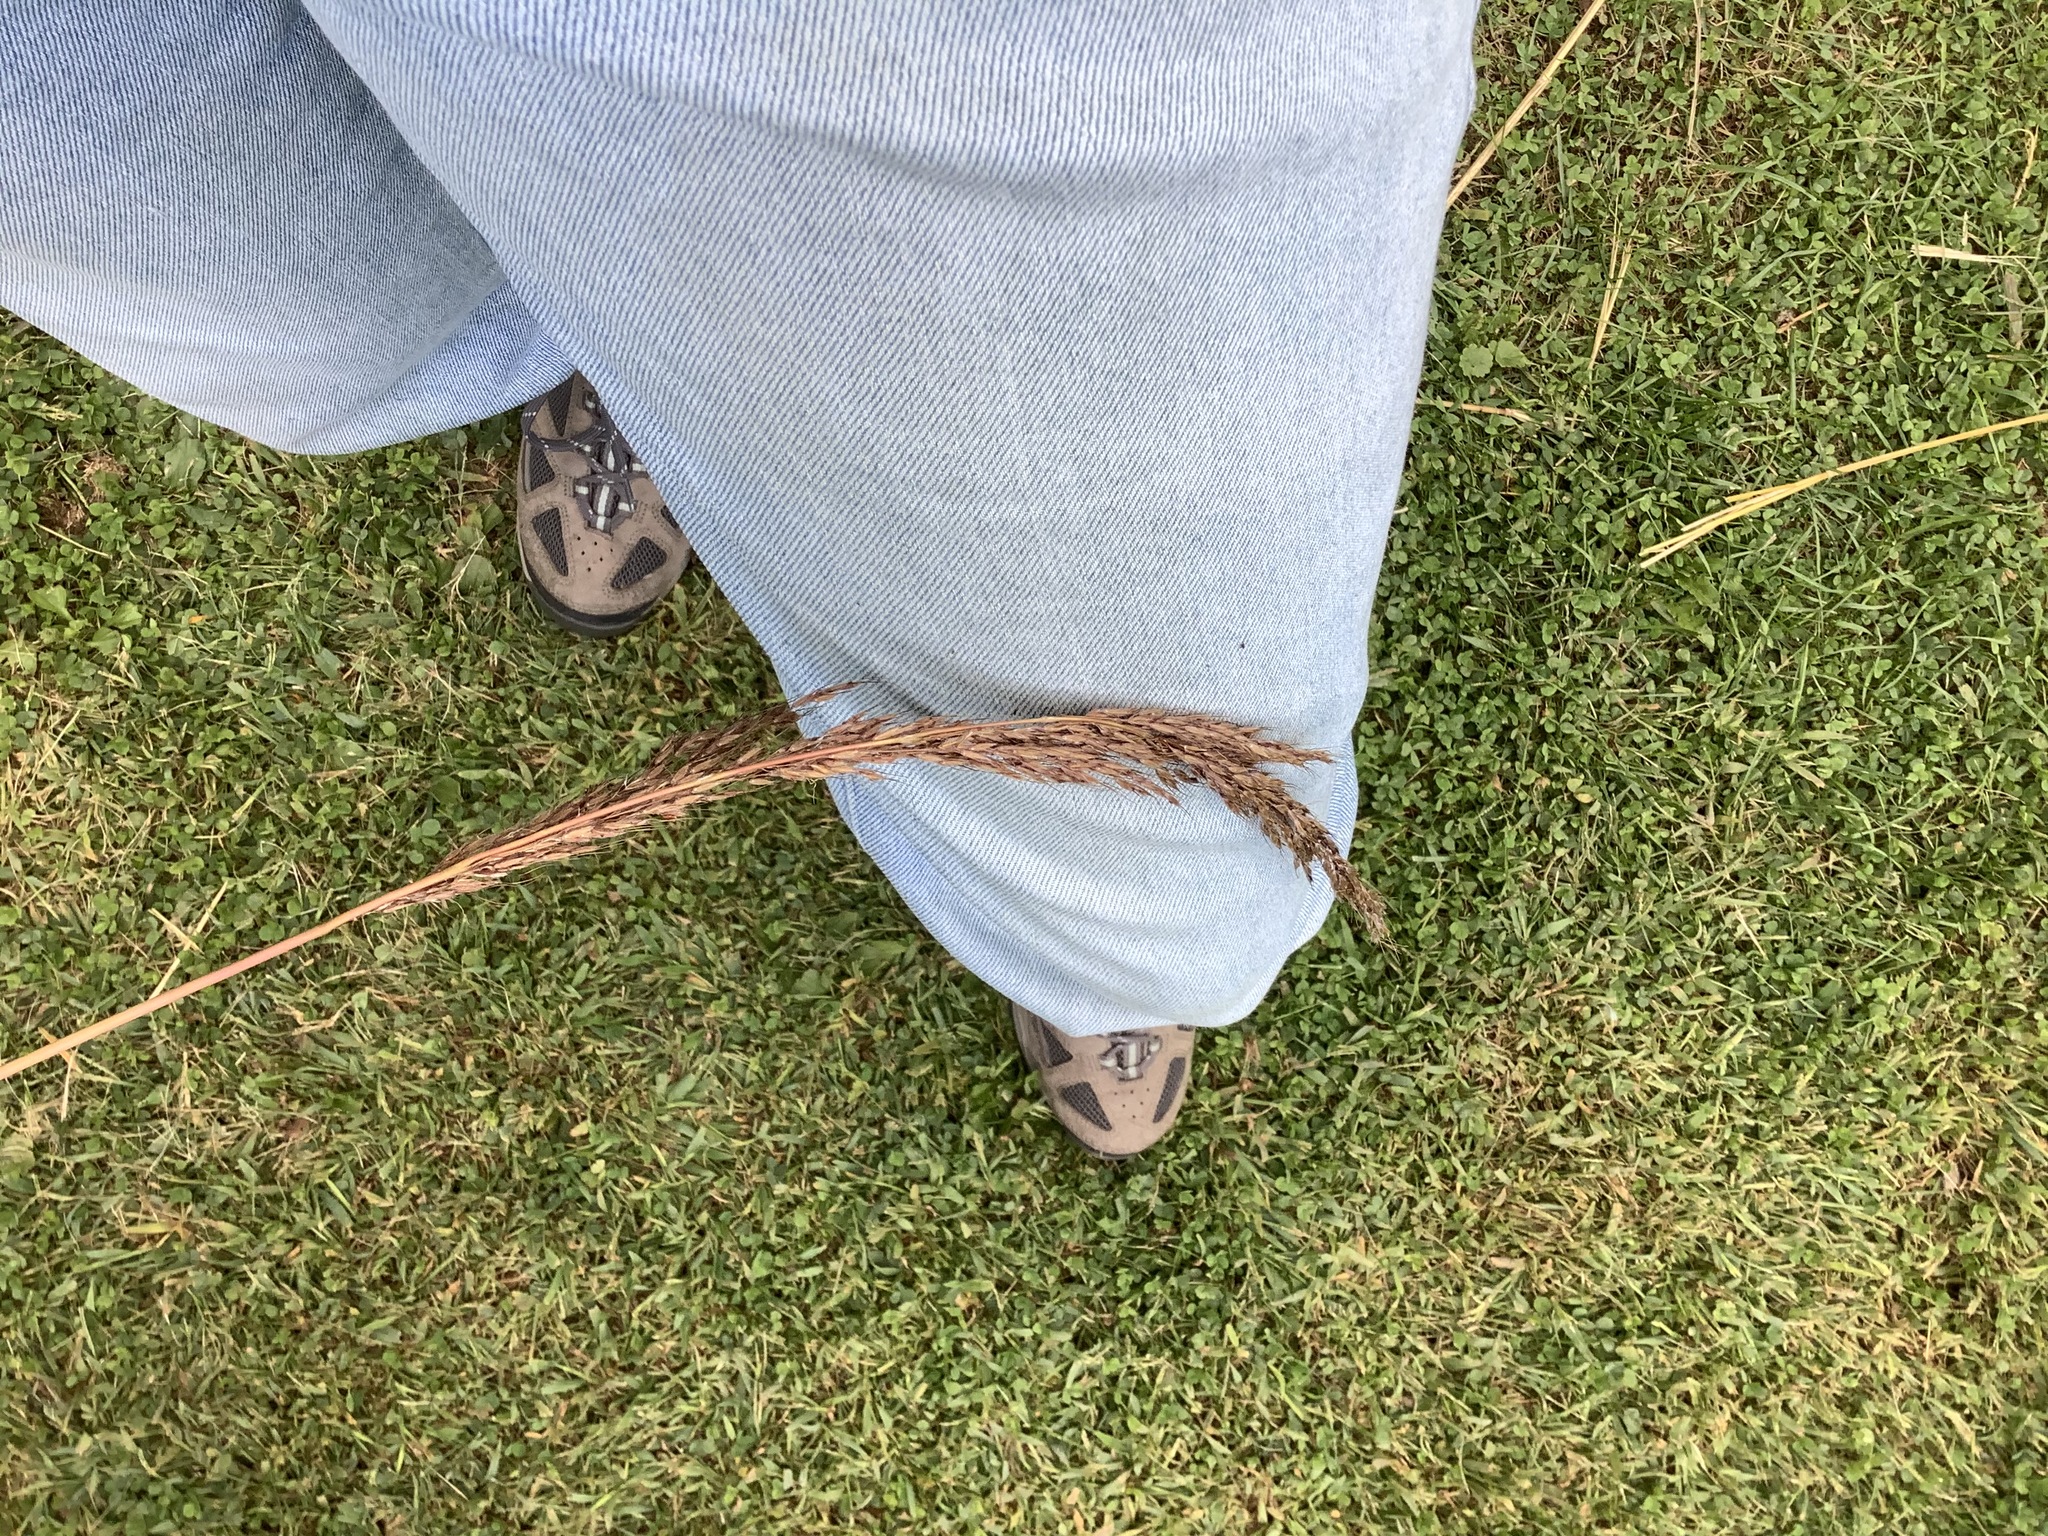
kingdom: Plantae
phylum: Tracheophyta
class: Liliopsida
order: Poales
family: Poaceae
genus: Sorghastrum
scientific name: Sorghastrum nutans
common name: Indian grass
